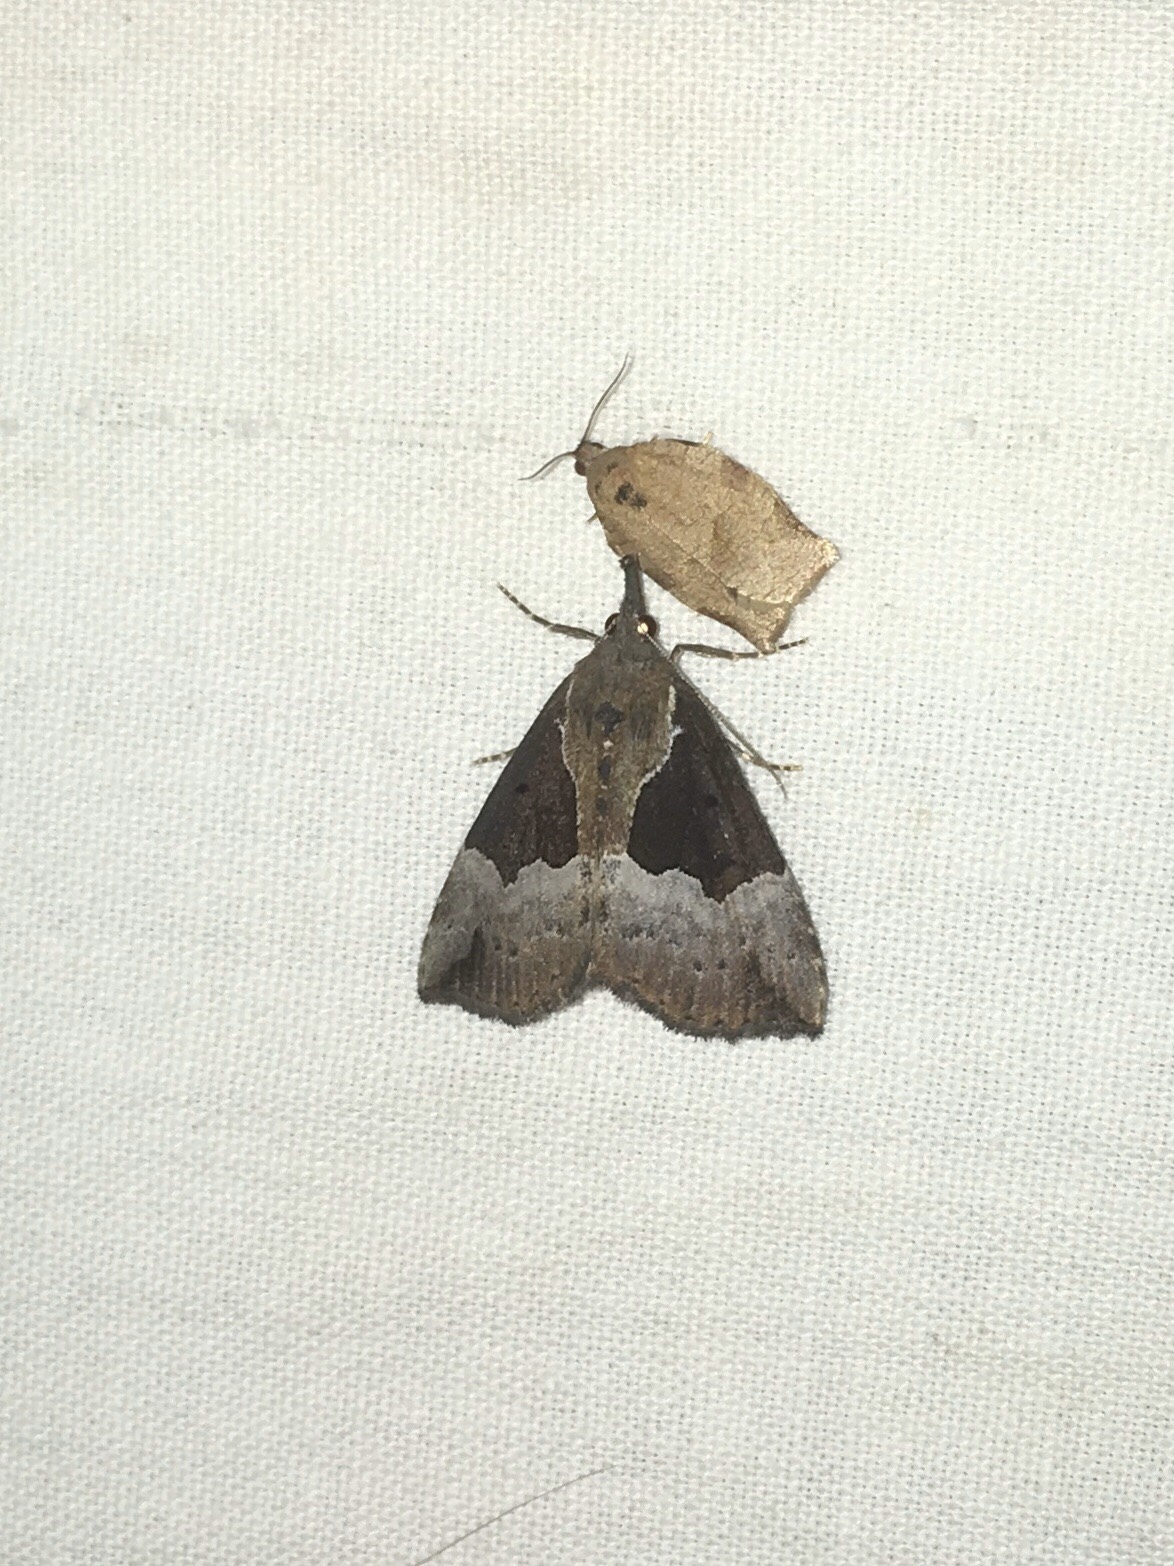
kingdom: Animalia
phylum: Arthropoda
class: Insecta
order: Lepidoptera
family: Erebidae
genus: Hypena
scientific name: Hypena bijugalis
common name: Dimorphic bomolocha moth
